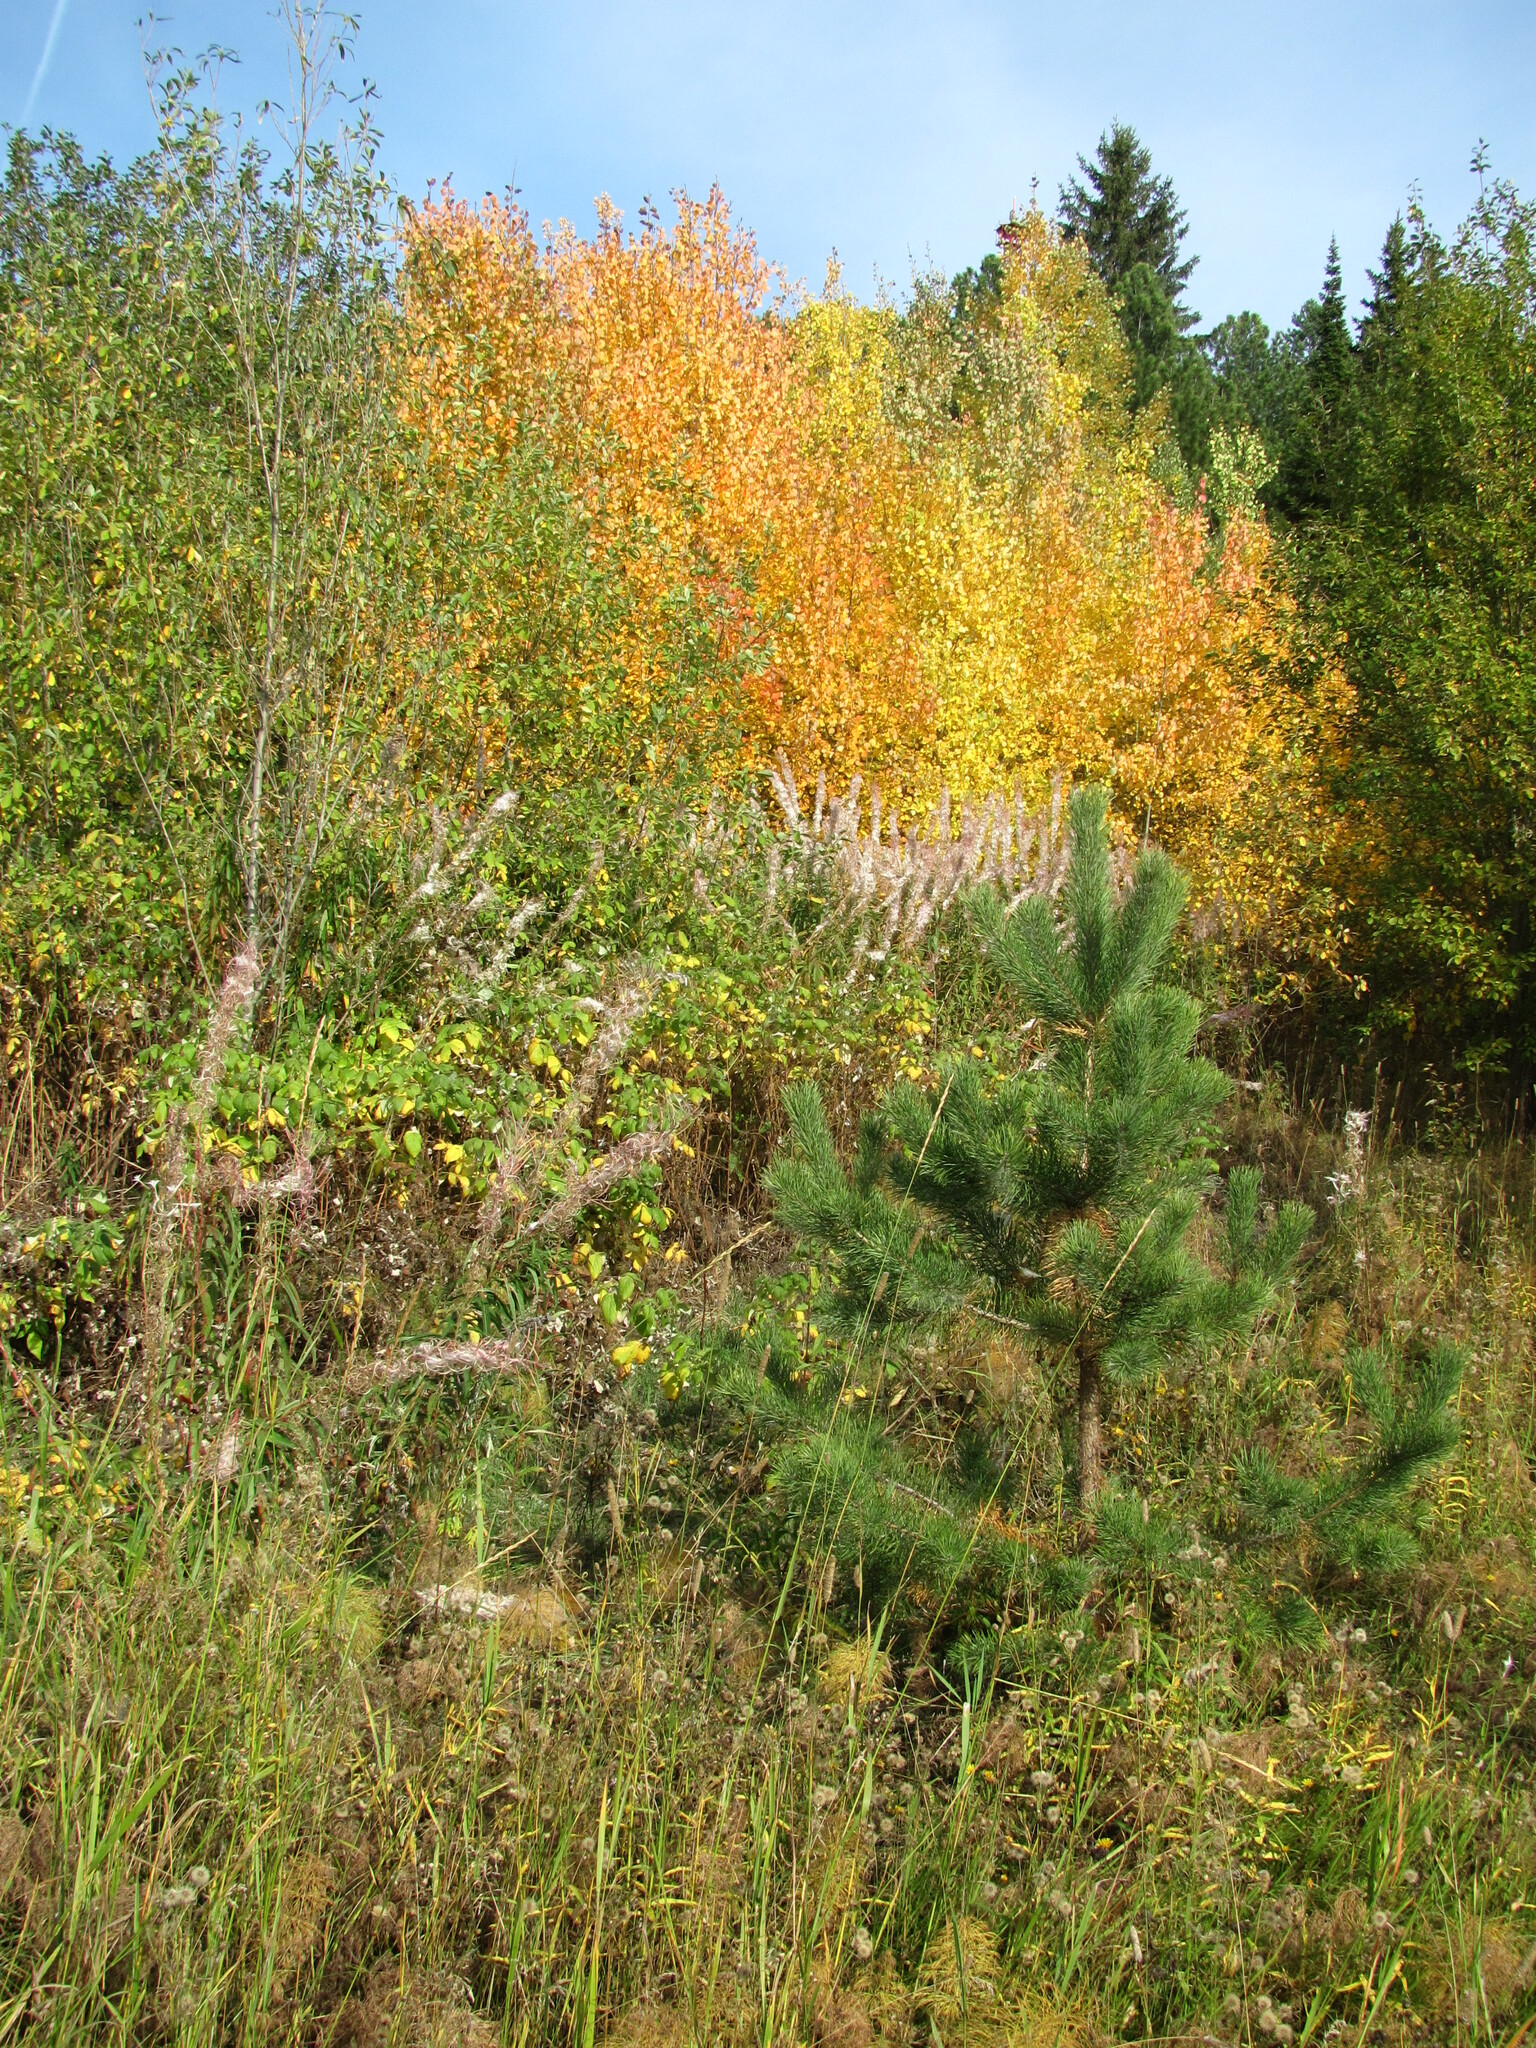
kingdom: Plantae
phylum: Tracheophyta
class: Pinopsida
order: Pinales
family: Pinaceae
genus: Pinus
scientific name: Pinus sylvestris
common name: Scots pine
